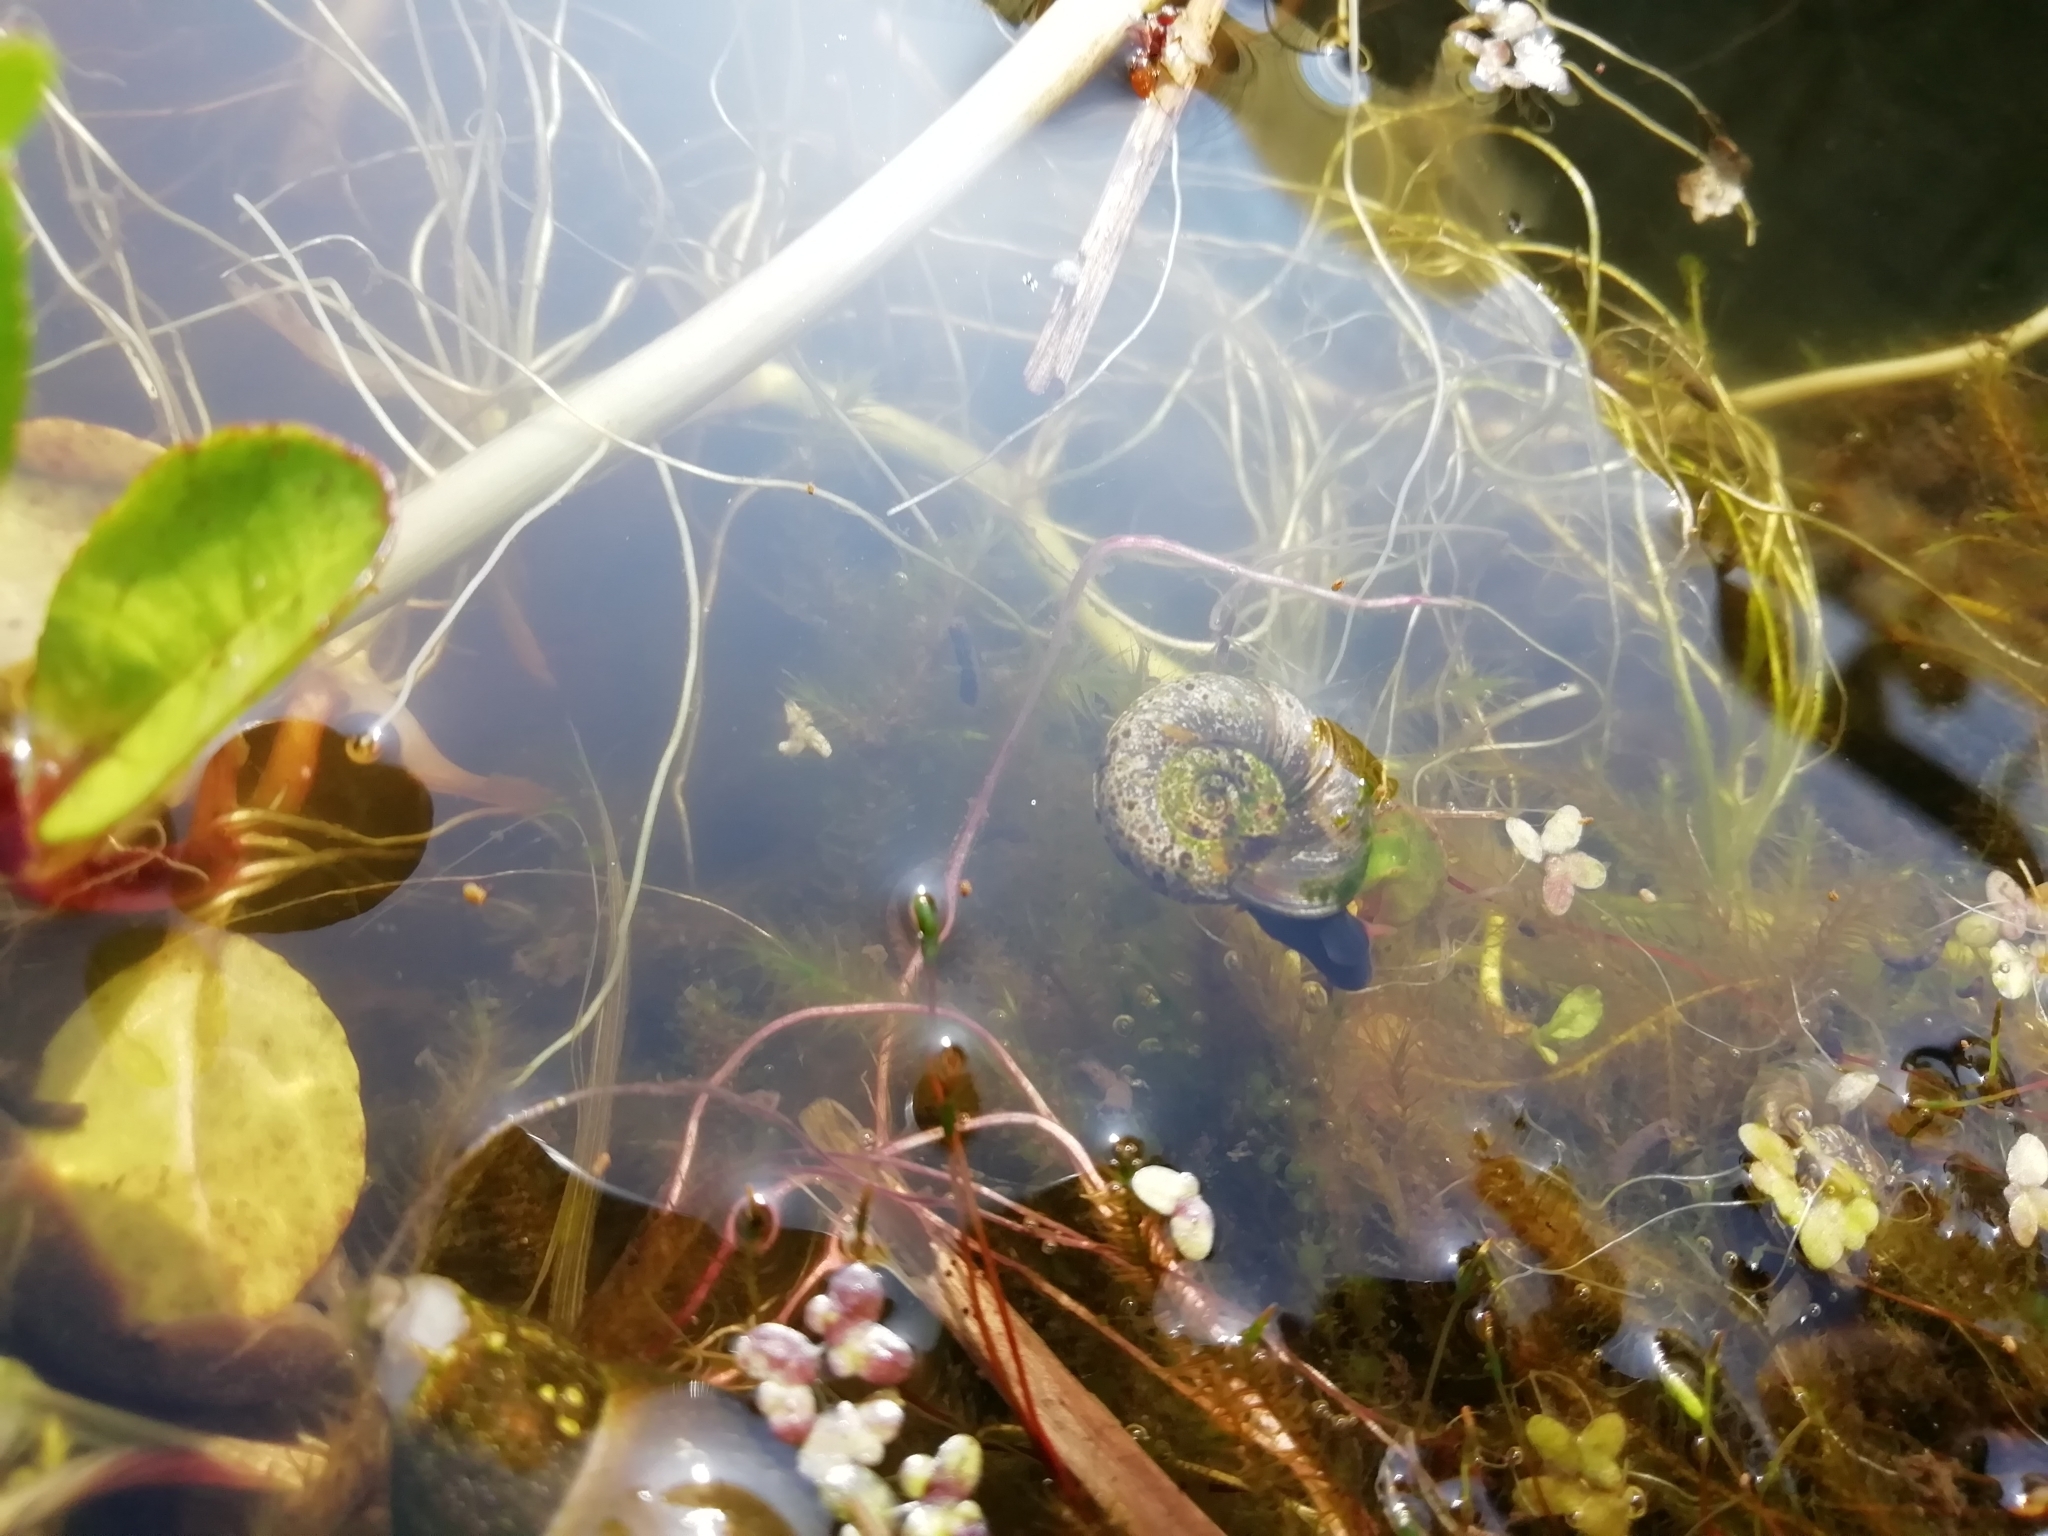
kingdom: Animalia
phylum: Mollusca
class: Gastropoda
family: Planorbidae
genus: Planorbarius
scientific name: Planorbarius corneus
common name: Great ramshorn
